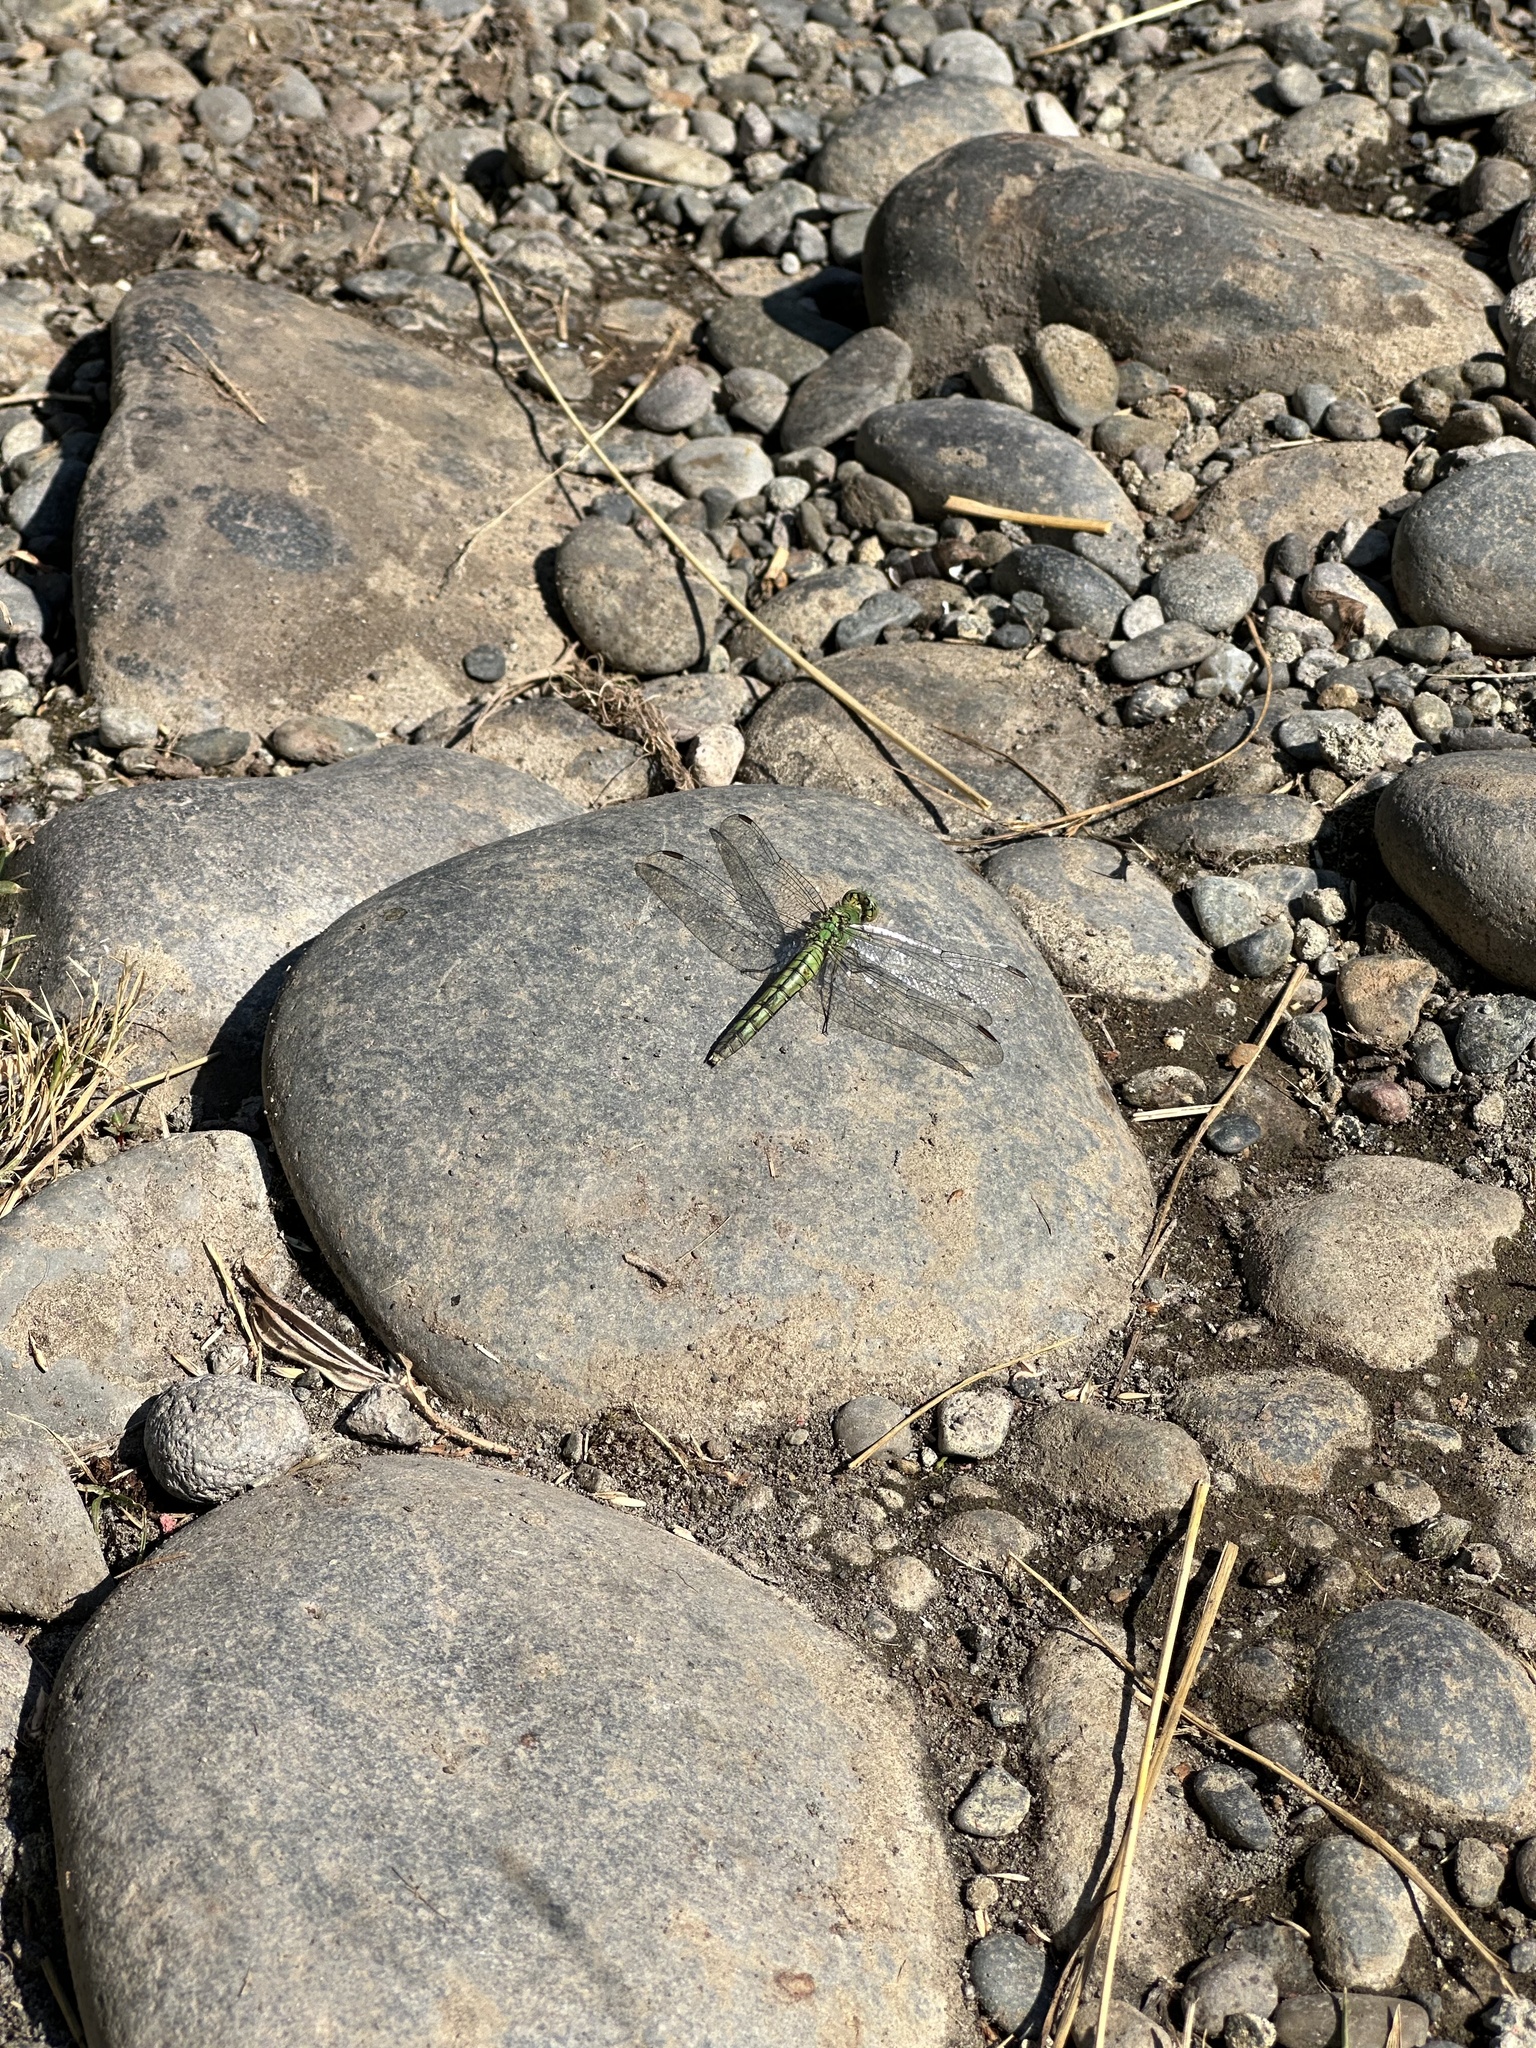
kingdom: Animalia
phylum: Arthropoda
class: Insecta
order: Odonata
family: Libellulidae
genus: Erythemis
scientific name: Erythemis collocata
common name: Western pondhawk
